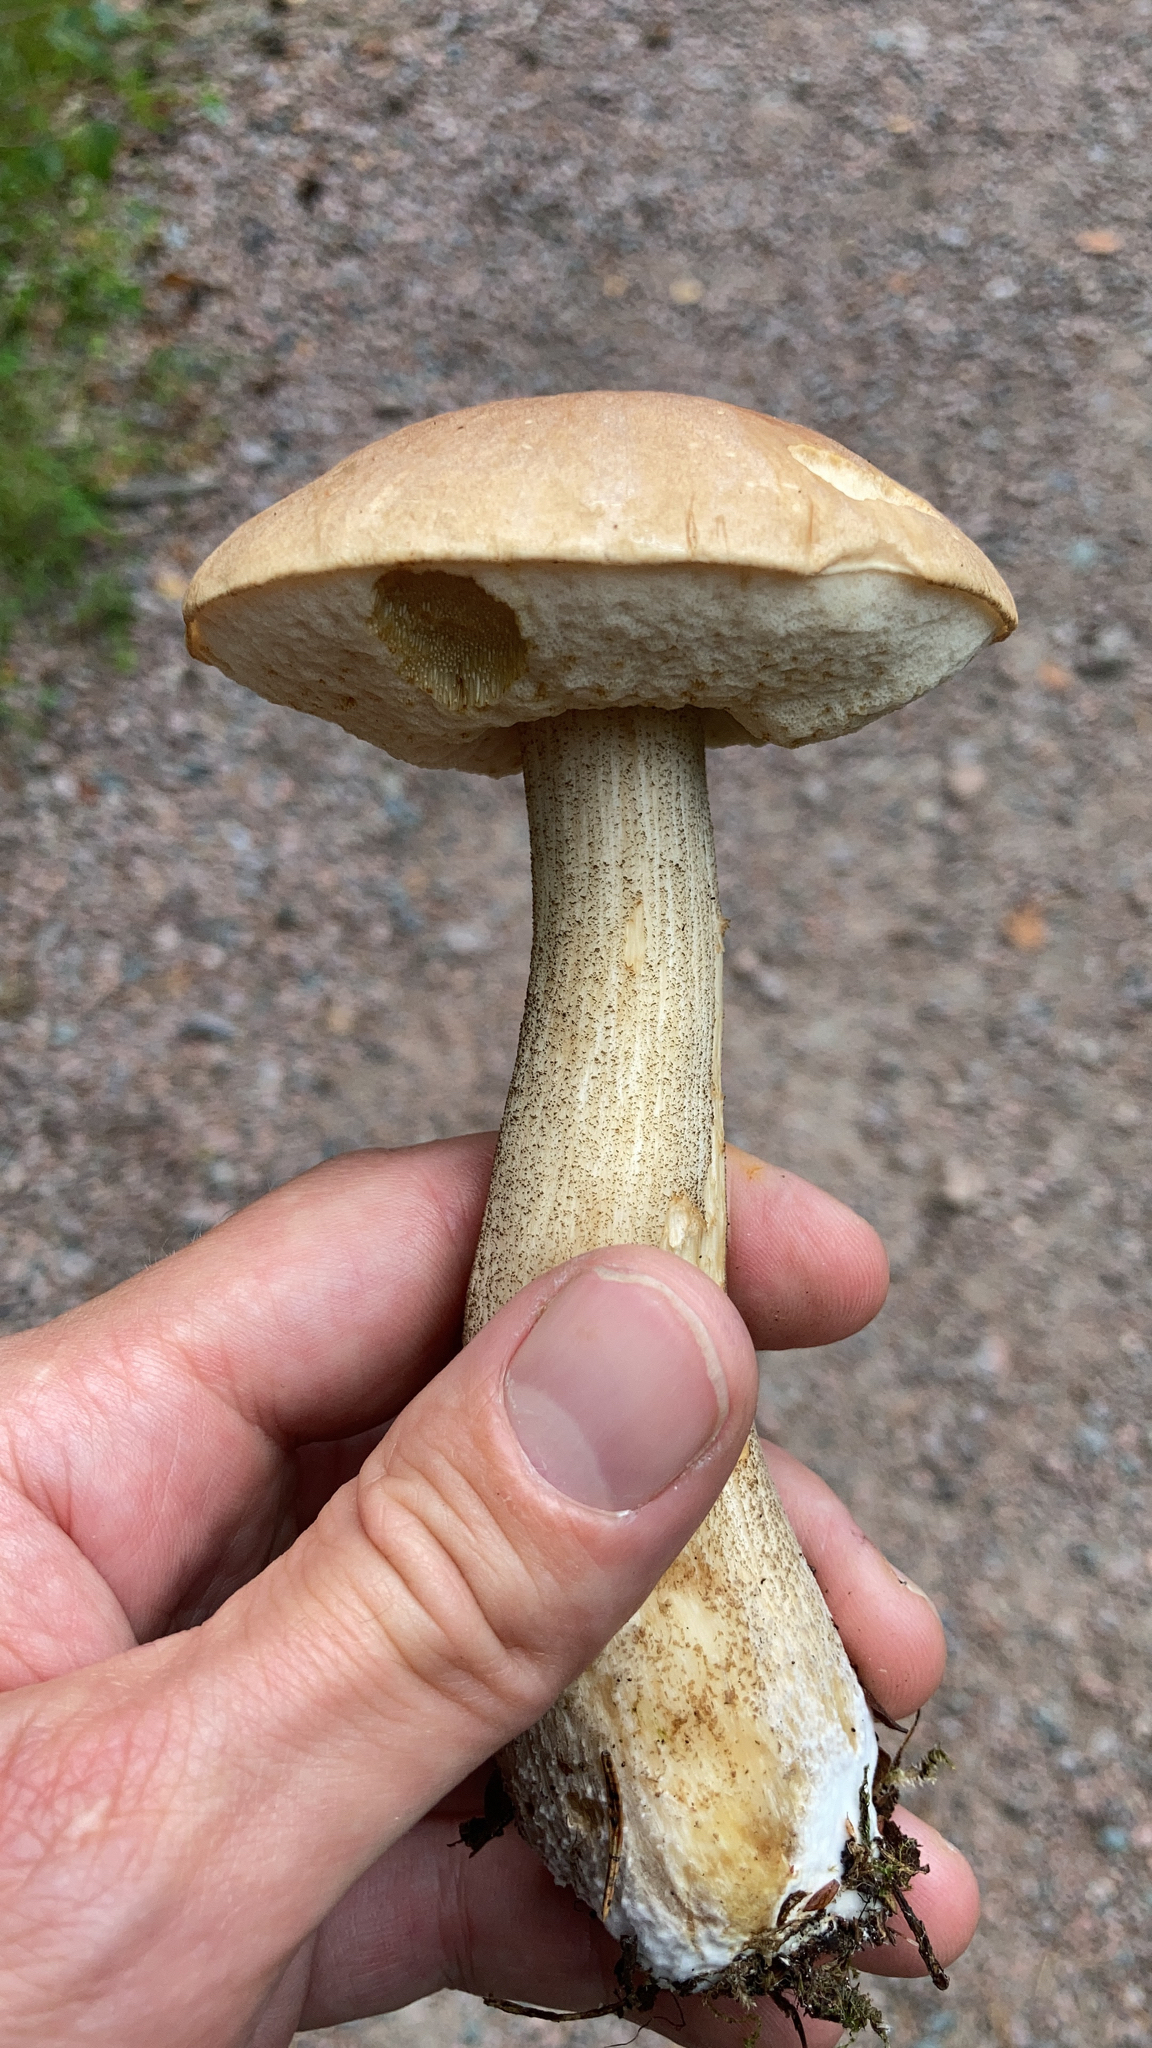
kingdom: Fungi
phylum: Basidiomycota
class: Agaricomycetes
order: Boletales
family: Boletaceae
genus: Leccinum
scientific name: Leccinum scabrum
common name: Blushing bolete
